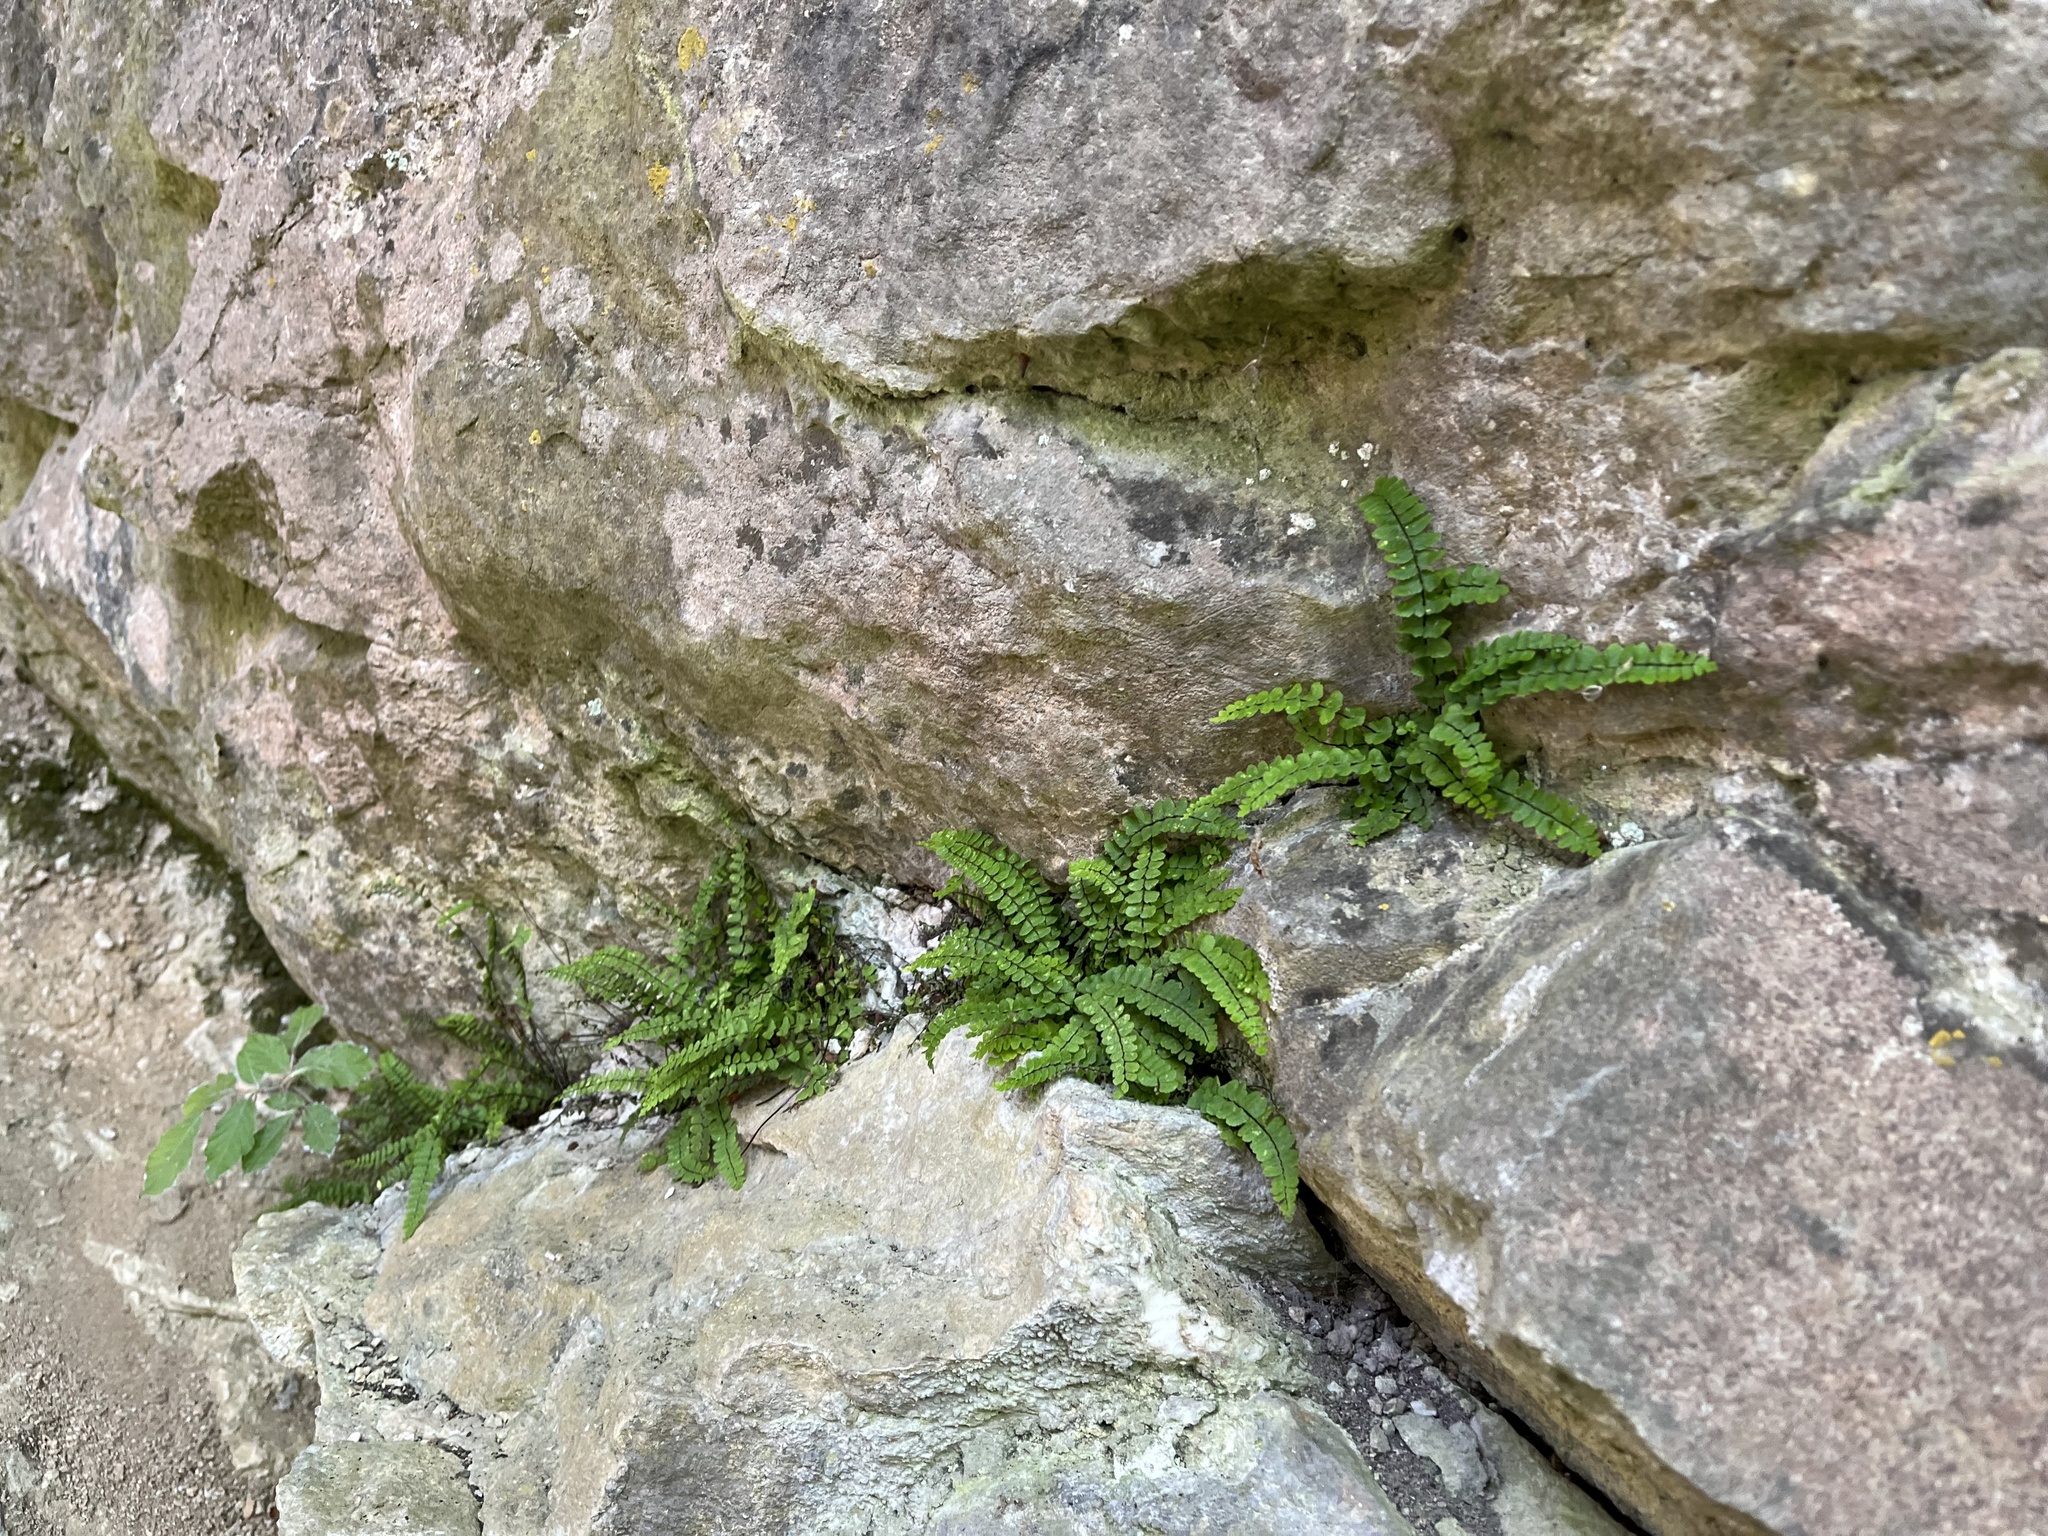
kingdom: Plantae
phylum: Tracheophyta
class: Polypodiopsida
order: Polypodiales
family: Aspleniaceae
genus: Asplenium
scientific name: Asplenium trichomanes
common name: Maidenhair spleenwort
